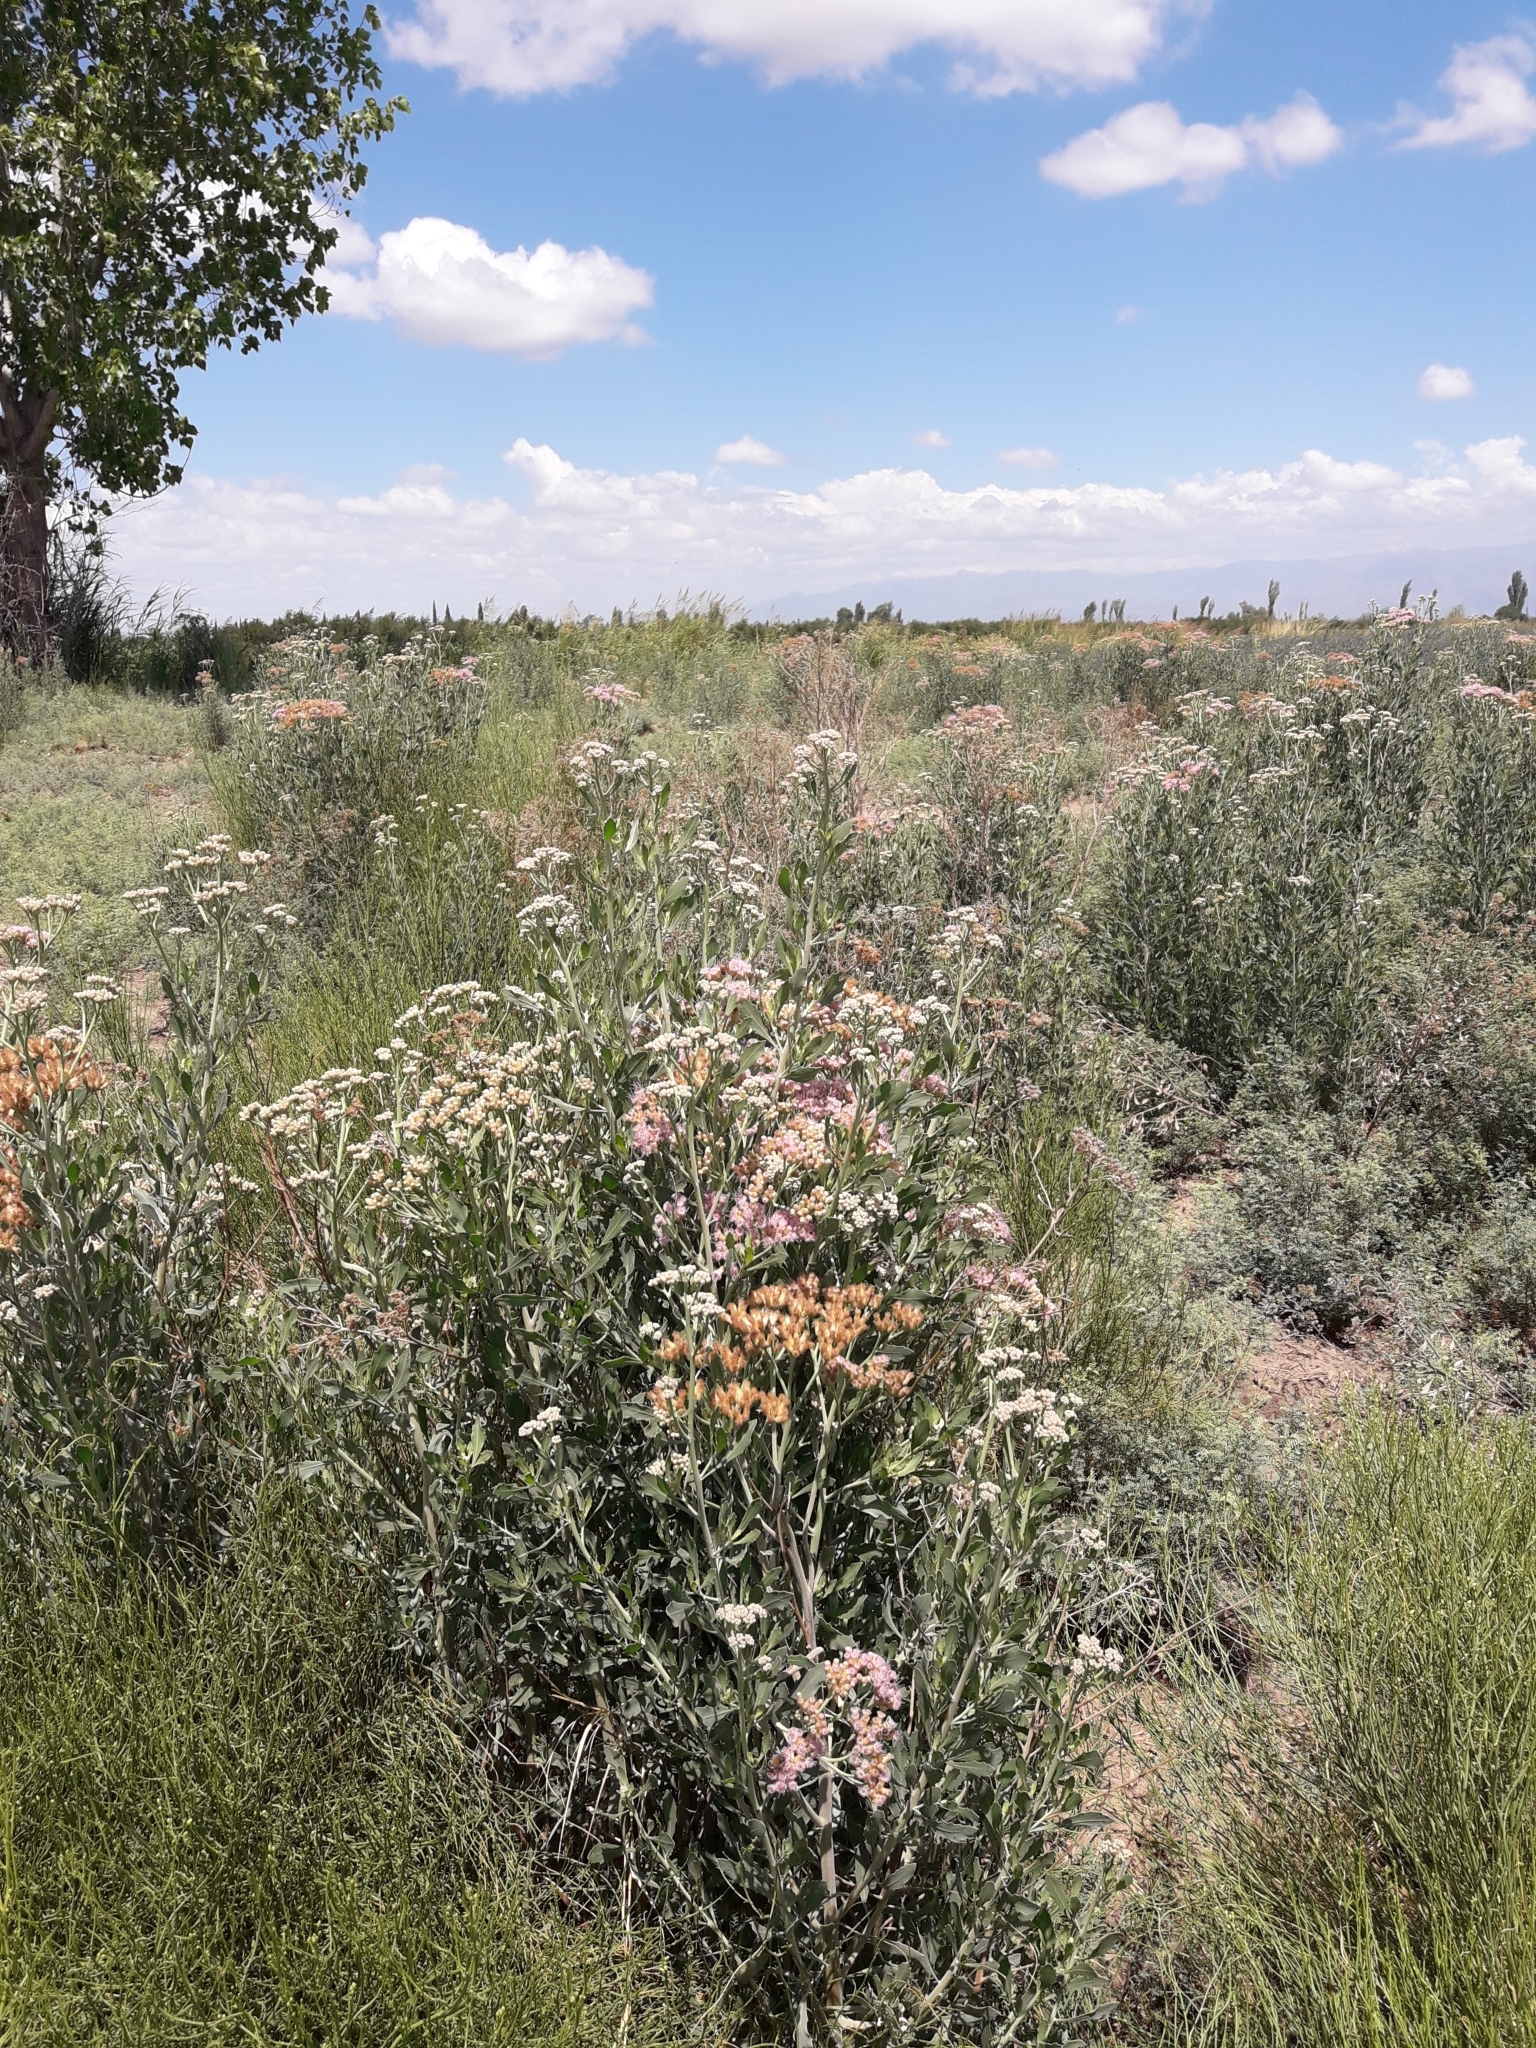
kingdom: Plantae
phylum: Tracheophyta
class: Magnoliopsida
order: Asterales
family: Asteraceae
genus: Tessaria
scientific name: Tessaria absinthioides
